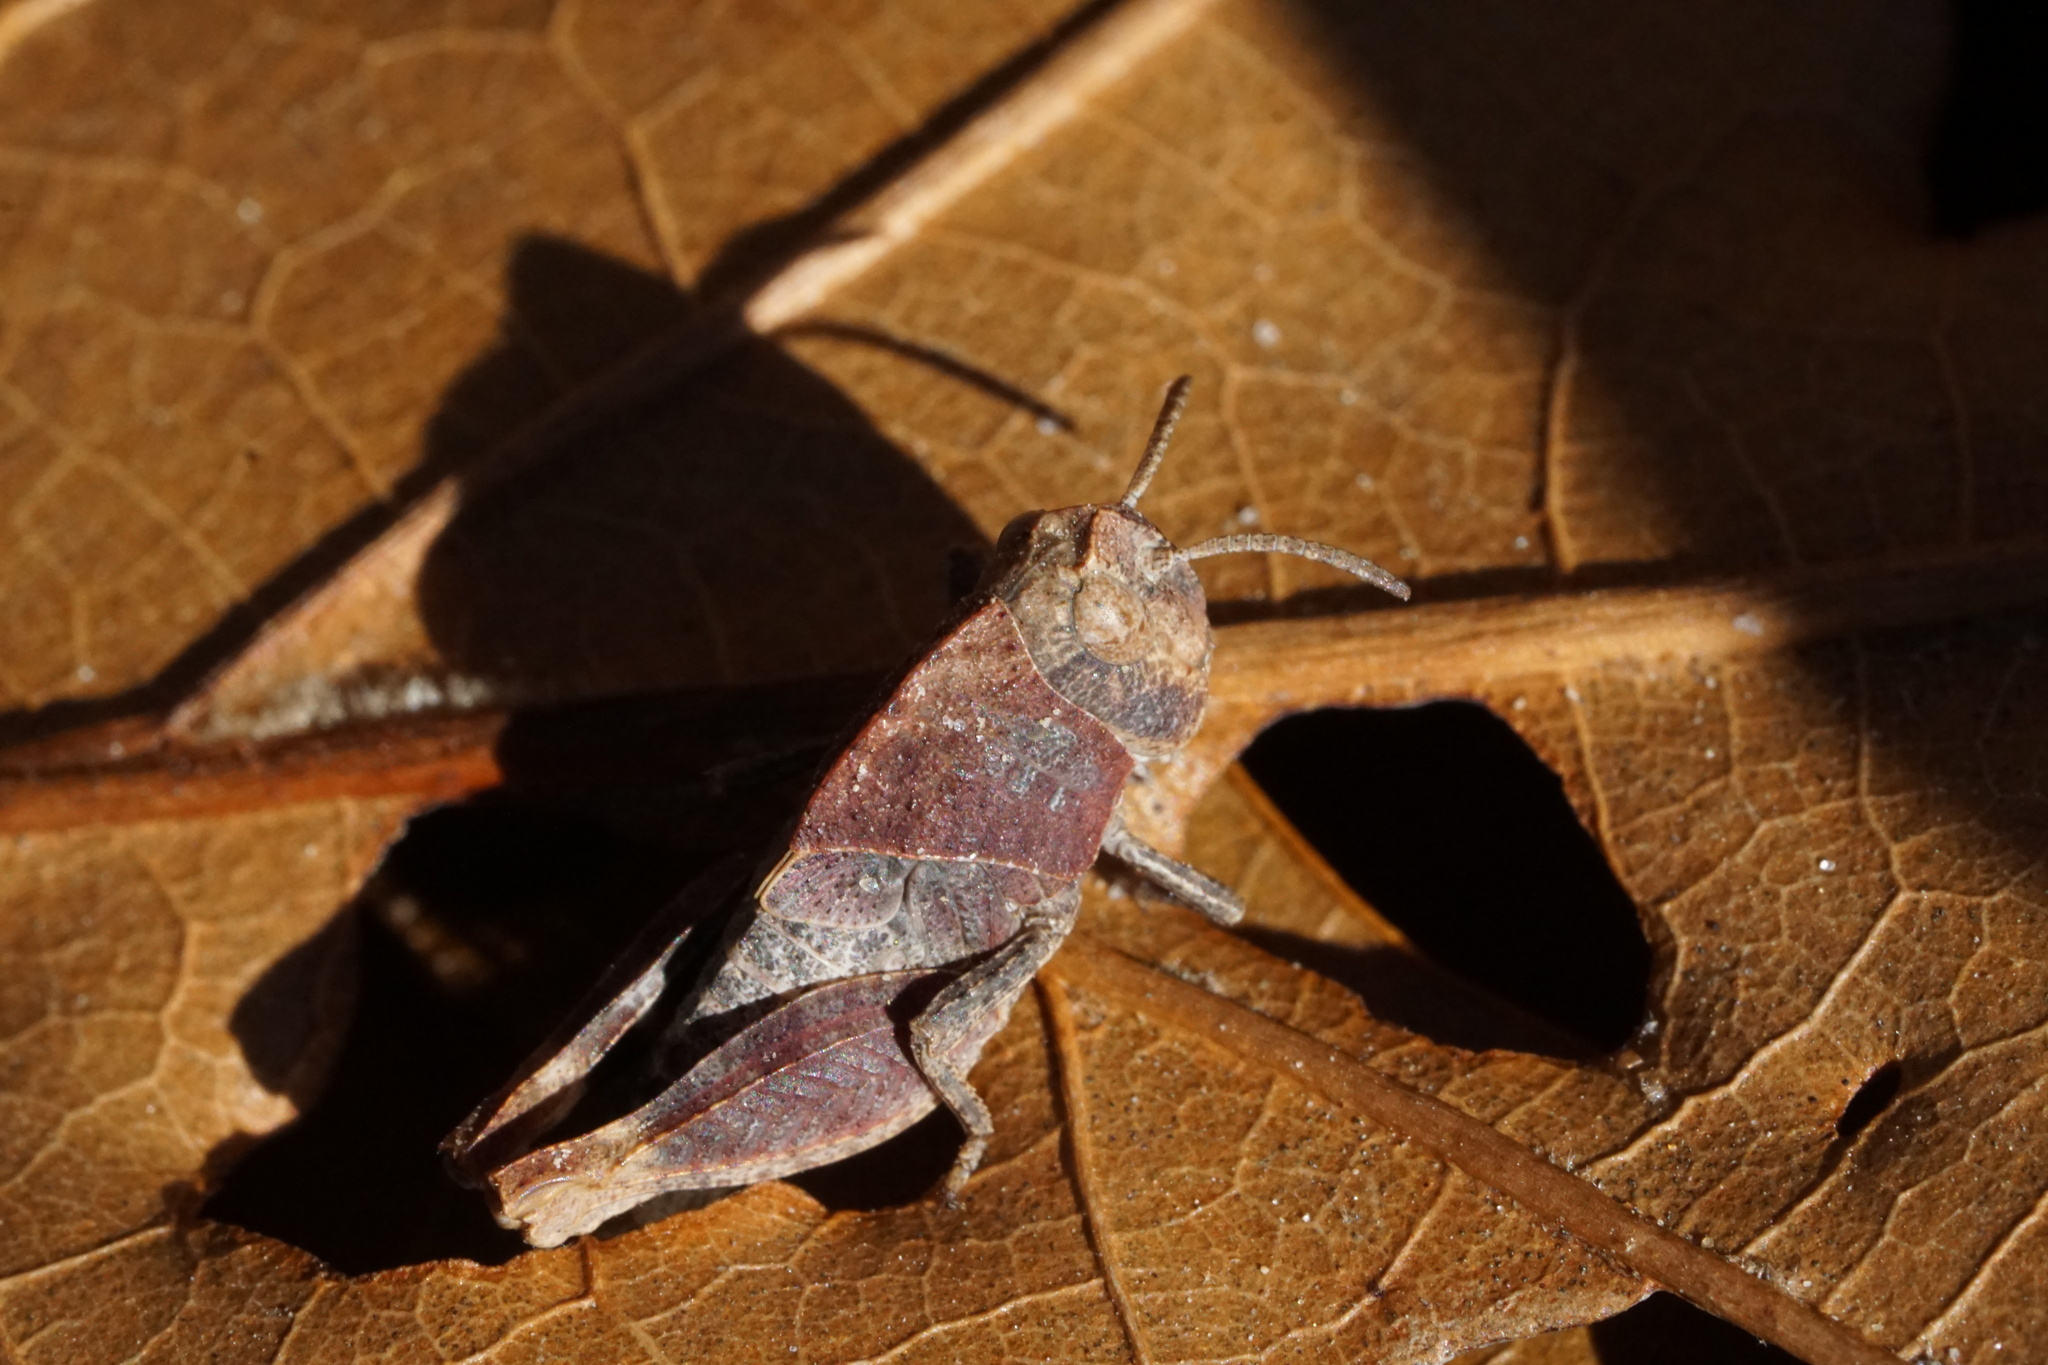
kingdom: Animalia
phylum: Arthropoda
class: Insecta
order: Orthoptera
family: Acrididae
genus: Arphia
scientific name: Arphia sulphurea
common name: Spring yellow-winged locust
